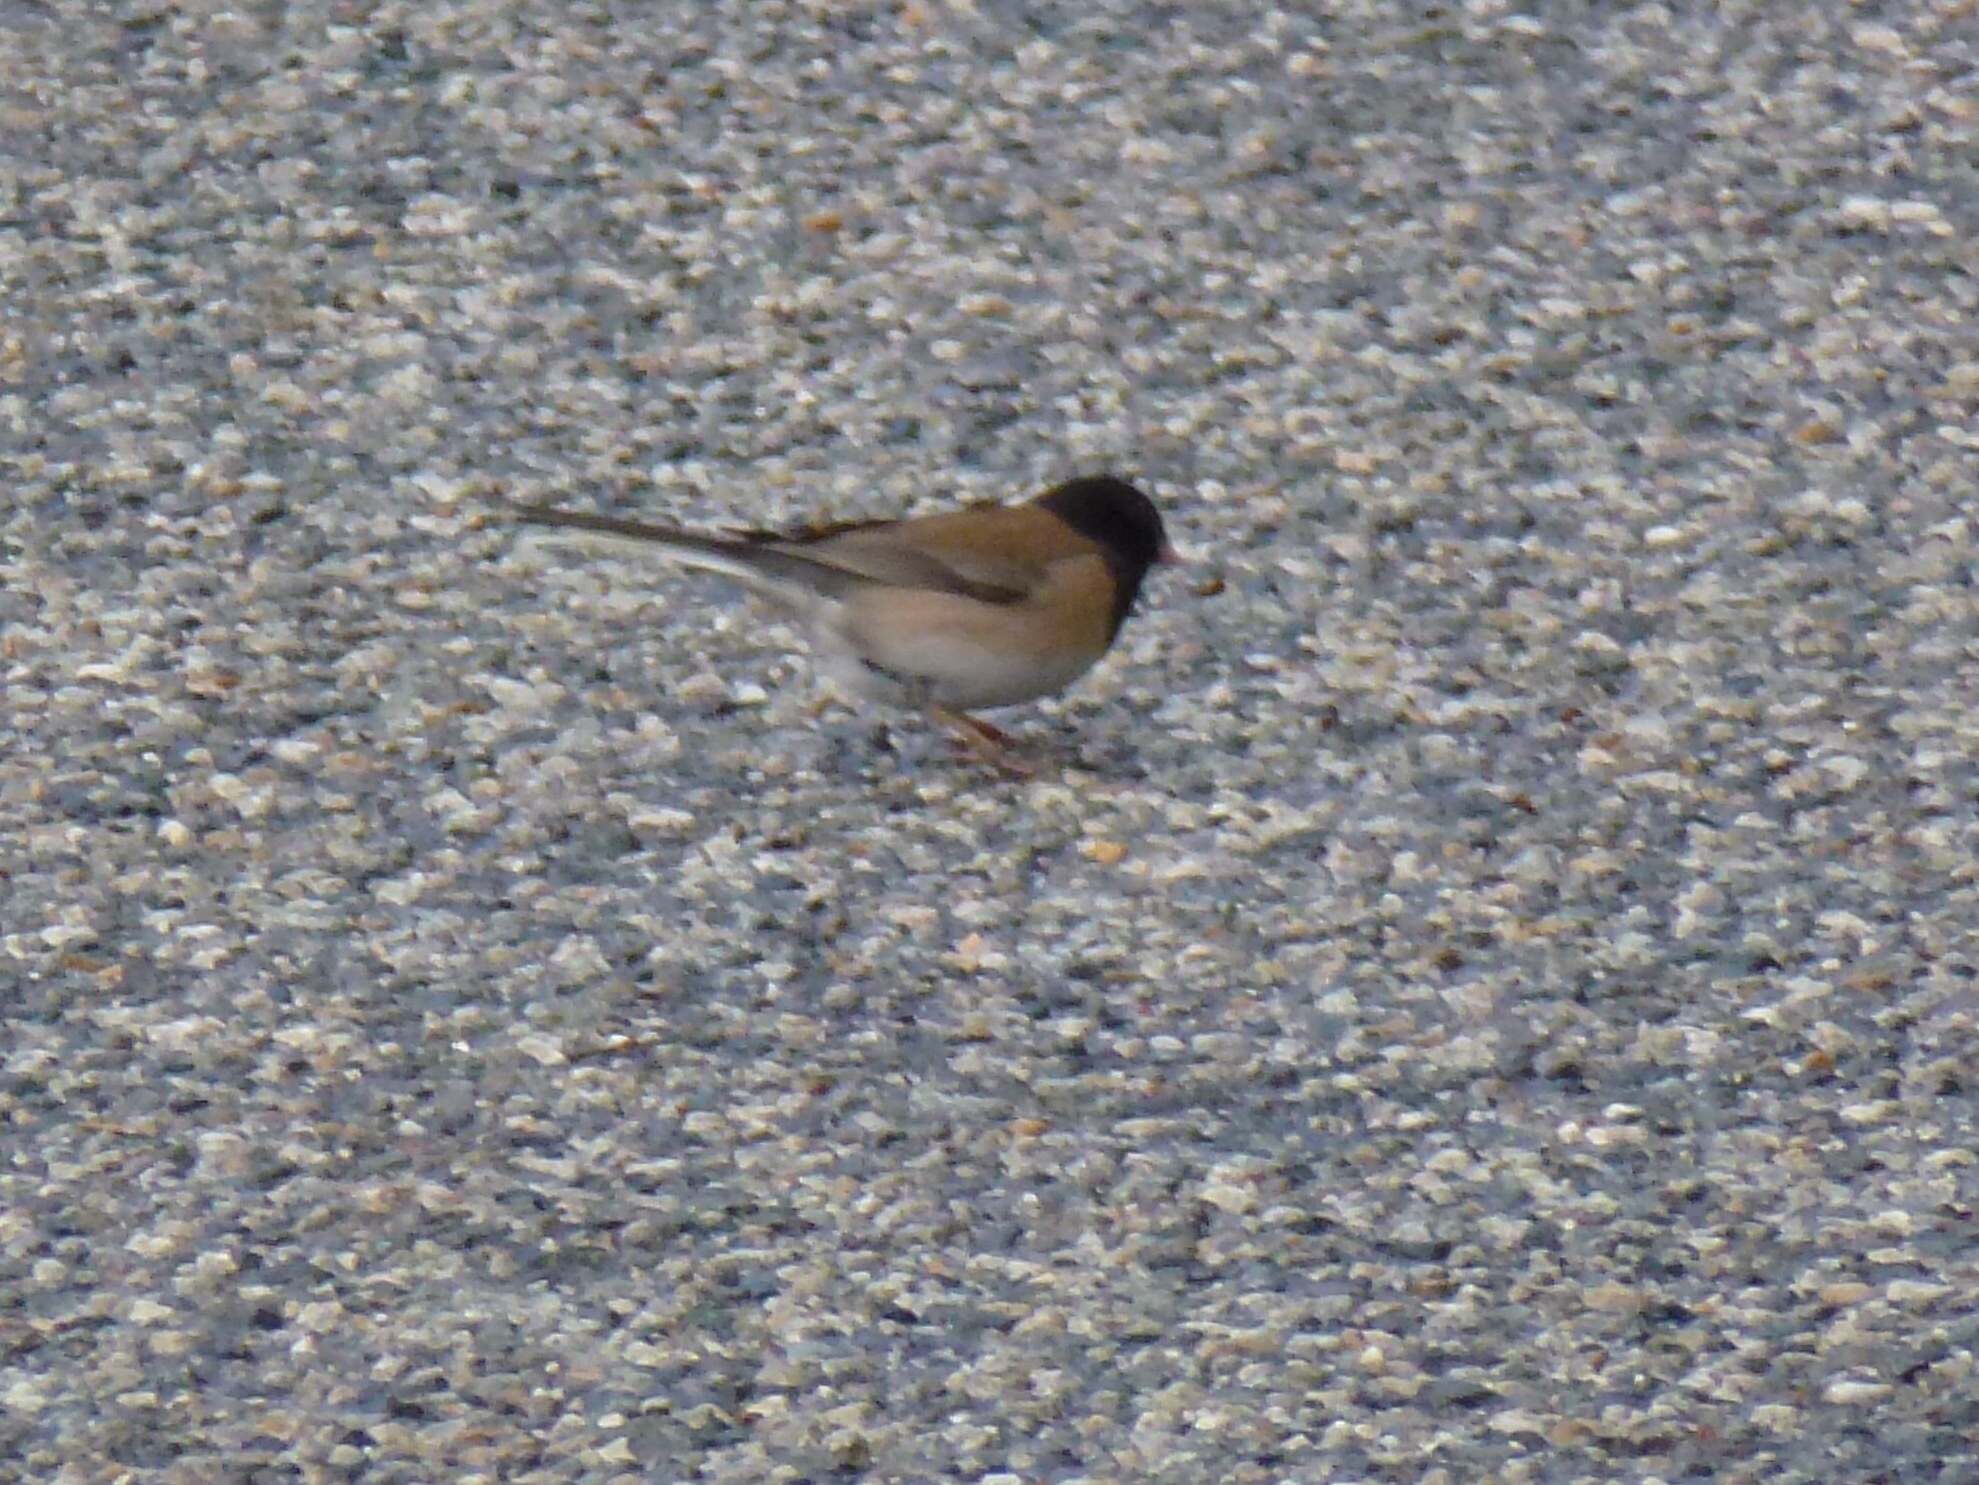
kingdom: Animalia
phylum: Chordata
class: Aves
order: Passeriformes
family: Passerellidae
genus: Junco
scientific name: Junco hyemalis
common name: Dark-eyed junco
